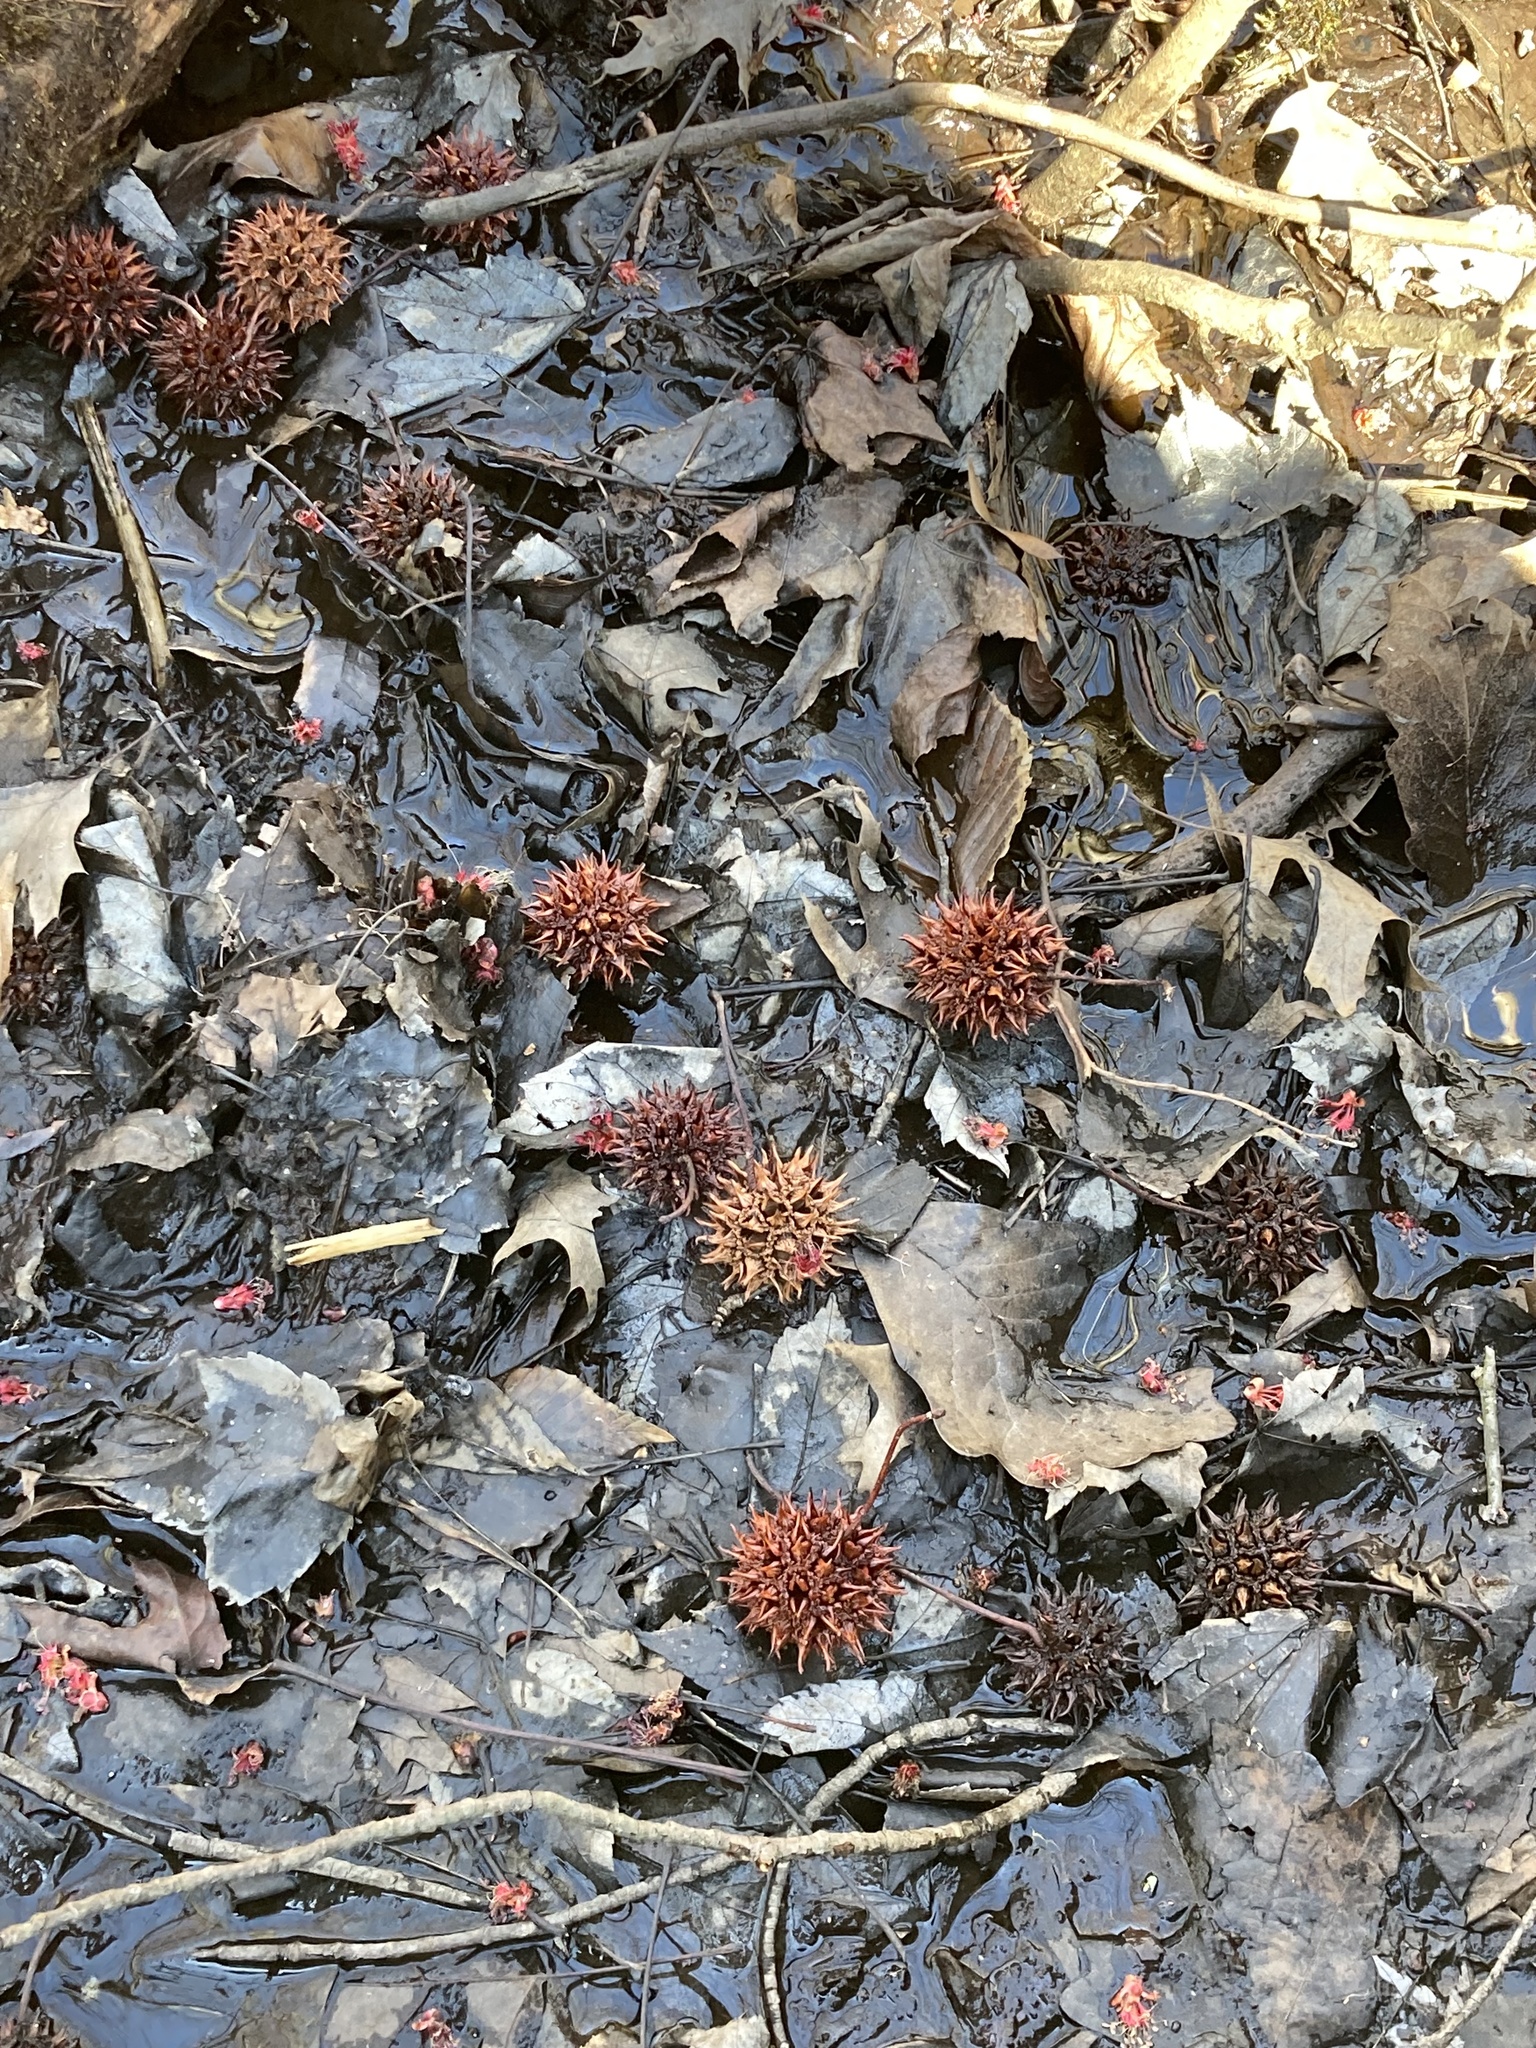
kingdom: Plantae
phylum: Tracheophyta
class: Magnoliopsida
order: Saxifragales
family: Altingiaceae
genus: Liquidambar
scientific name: Liquidambar styraciflua
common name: Sweet gum
